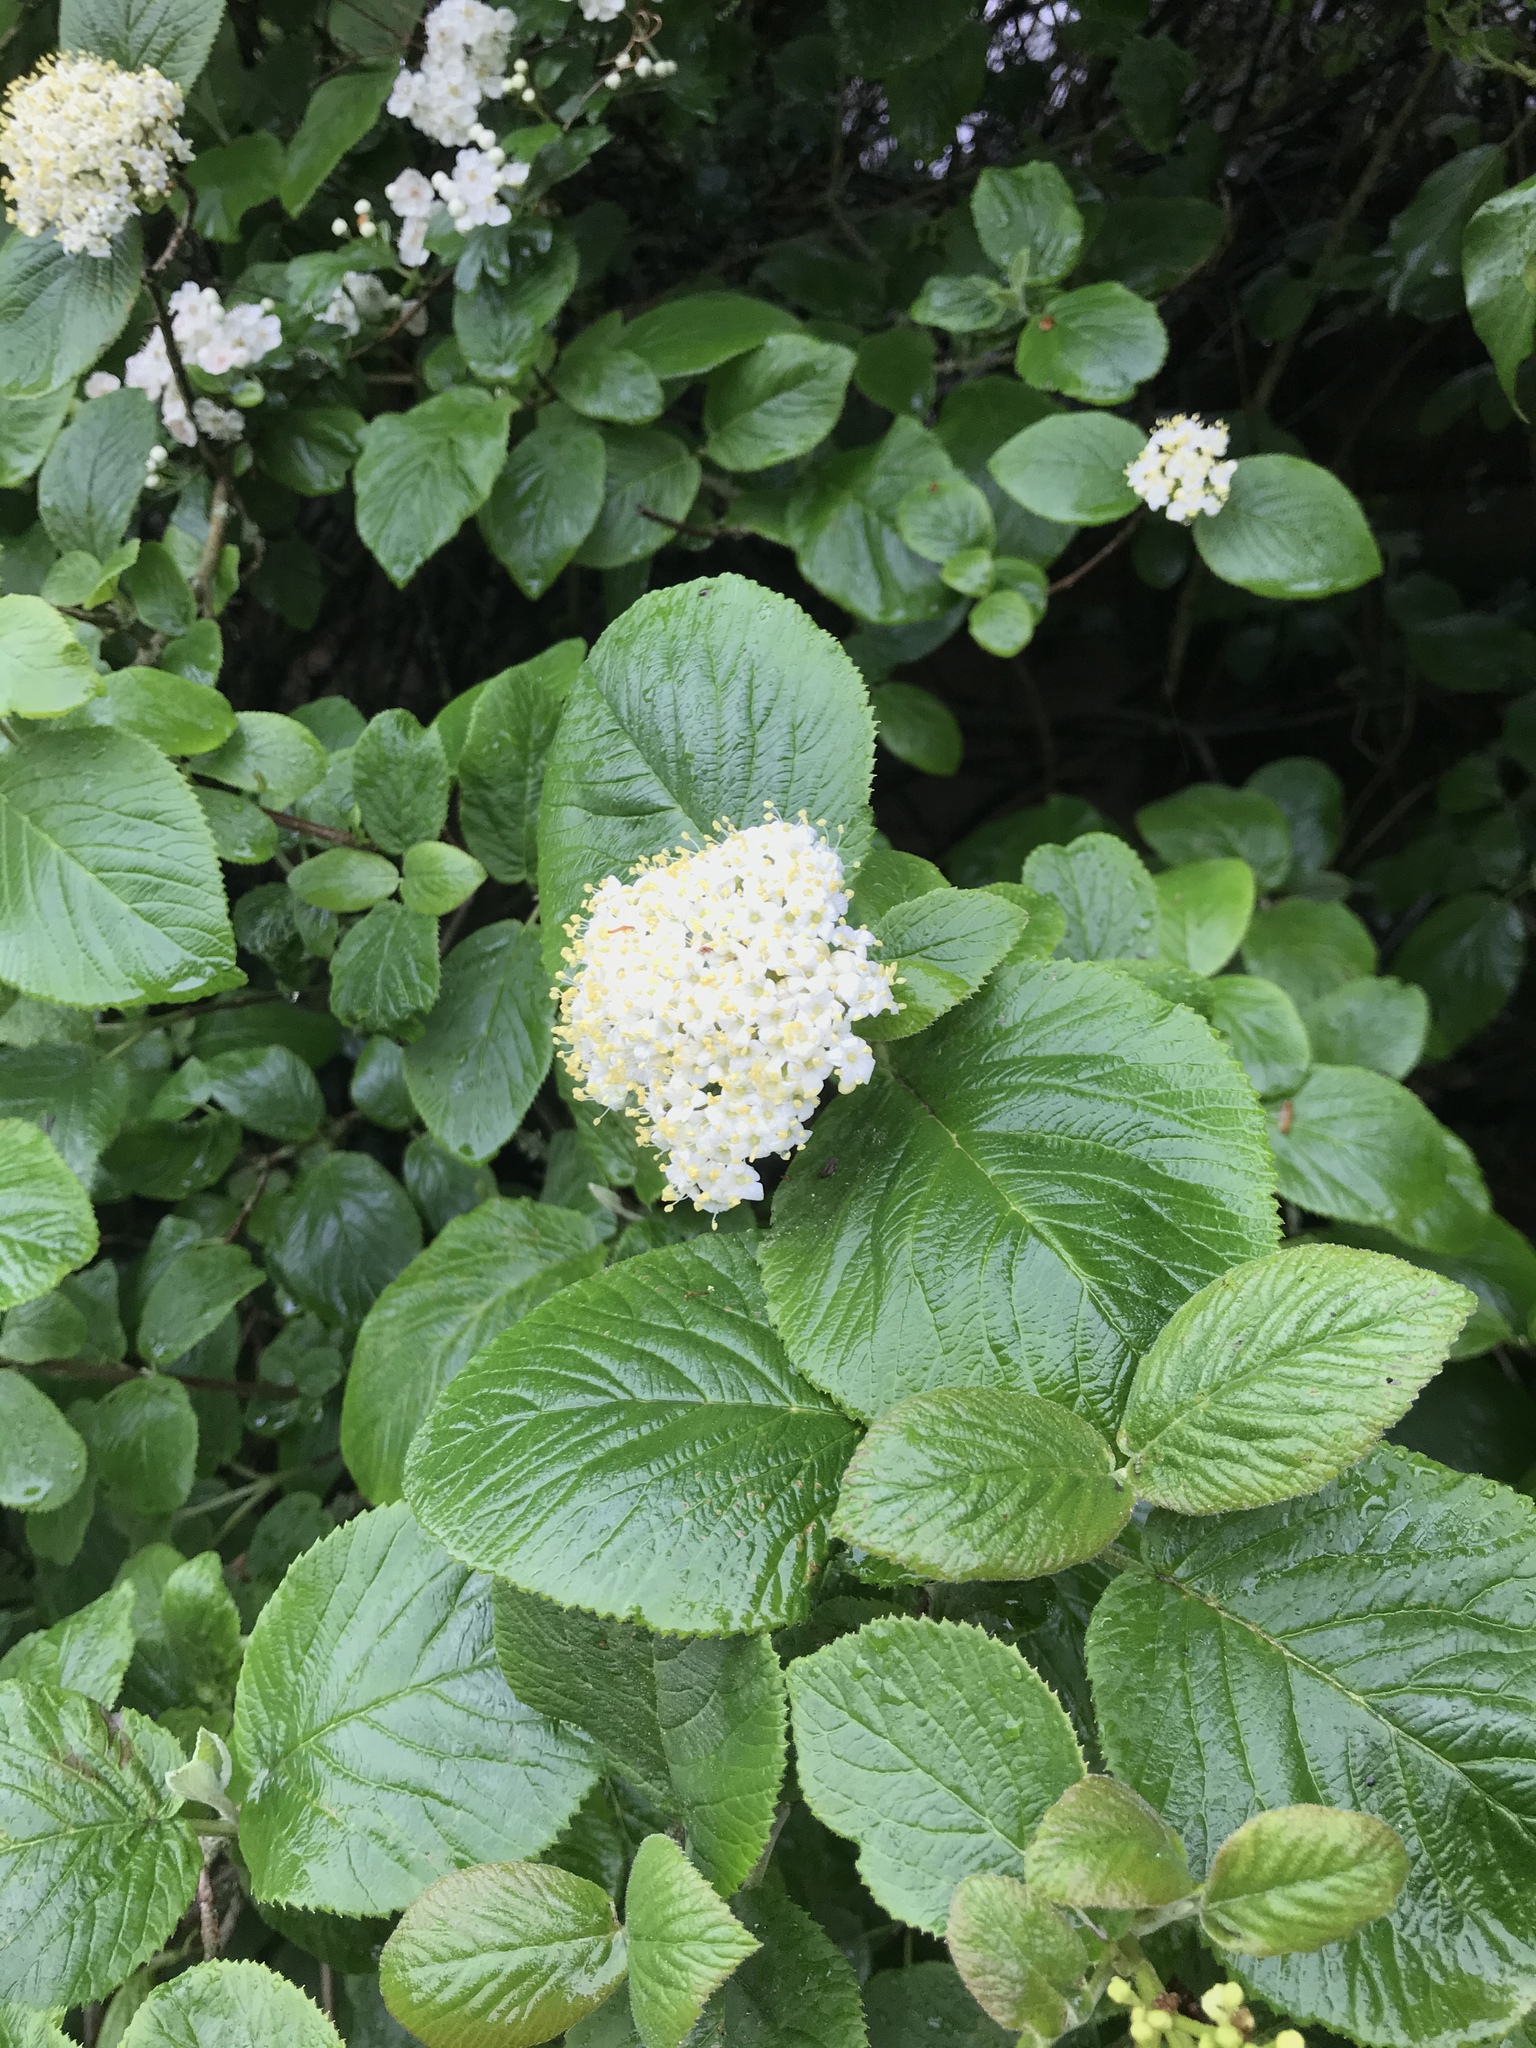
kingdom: Plantae
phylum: Tracheophyta
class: Magnoliopsida
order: Dipsacales
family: Viburnaceae
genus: Viburnum
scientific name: Viburnum lantana
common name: Wayfaring tree
